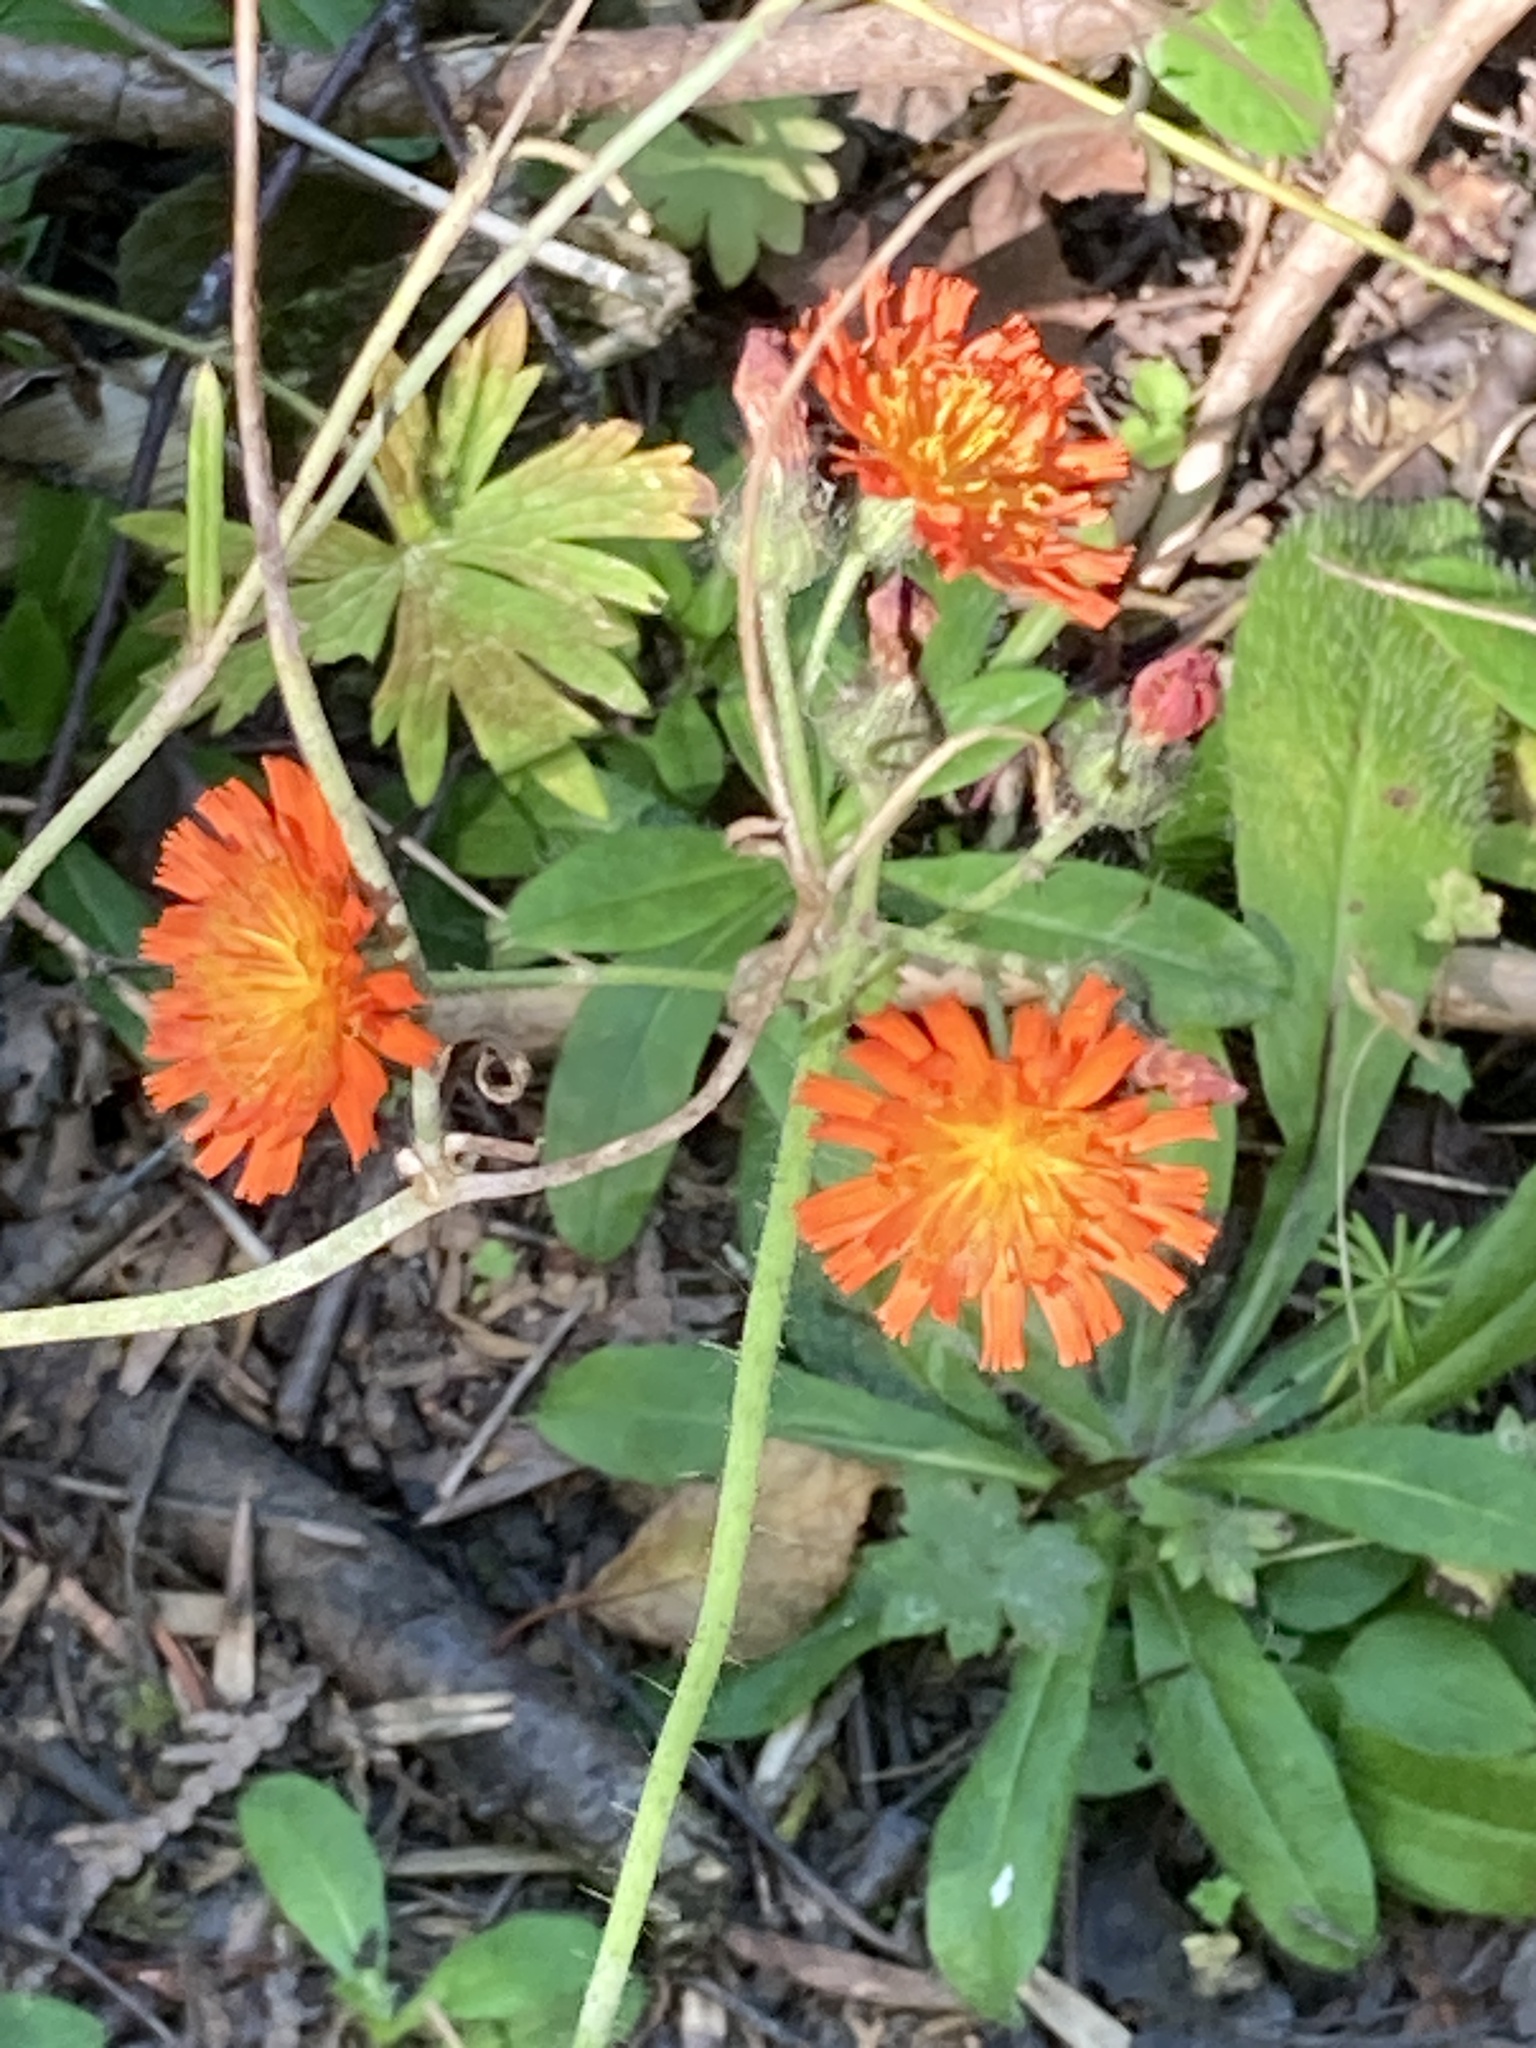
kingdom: Plantae
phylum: Tracheophyta
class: Magnoliopsida
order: Asterales
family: Asteraceae
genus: Pilosella
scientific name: Pilosella aurantiaca
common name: Fox-and-cubs
